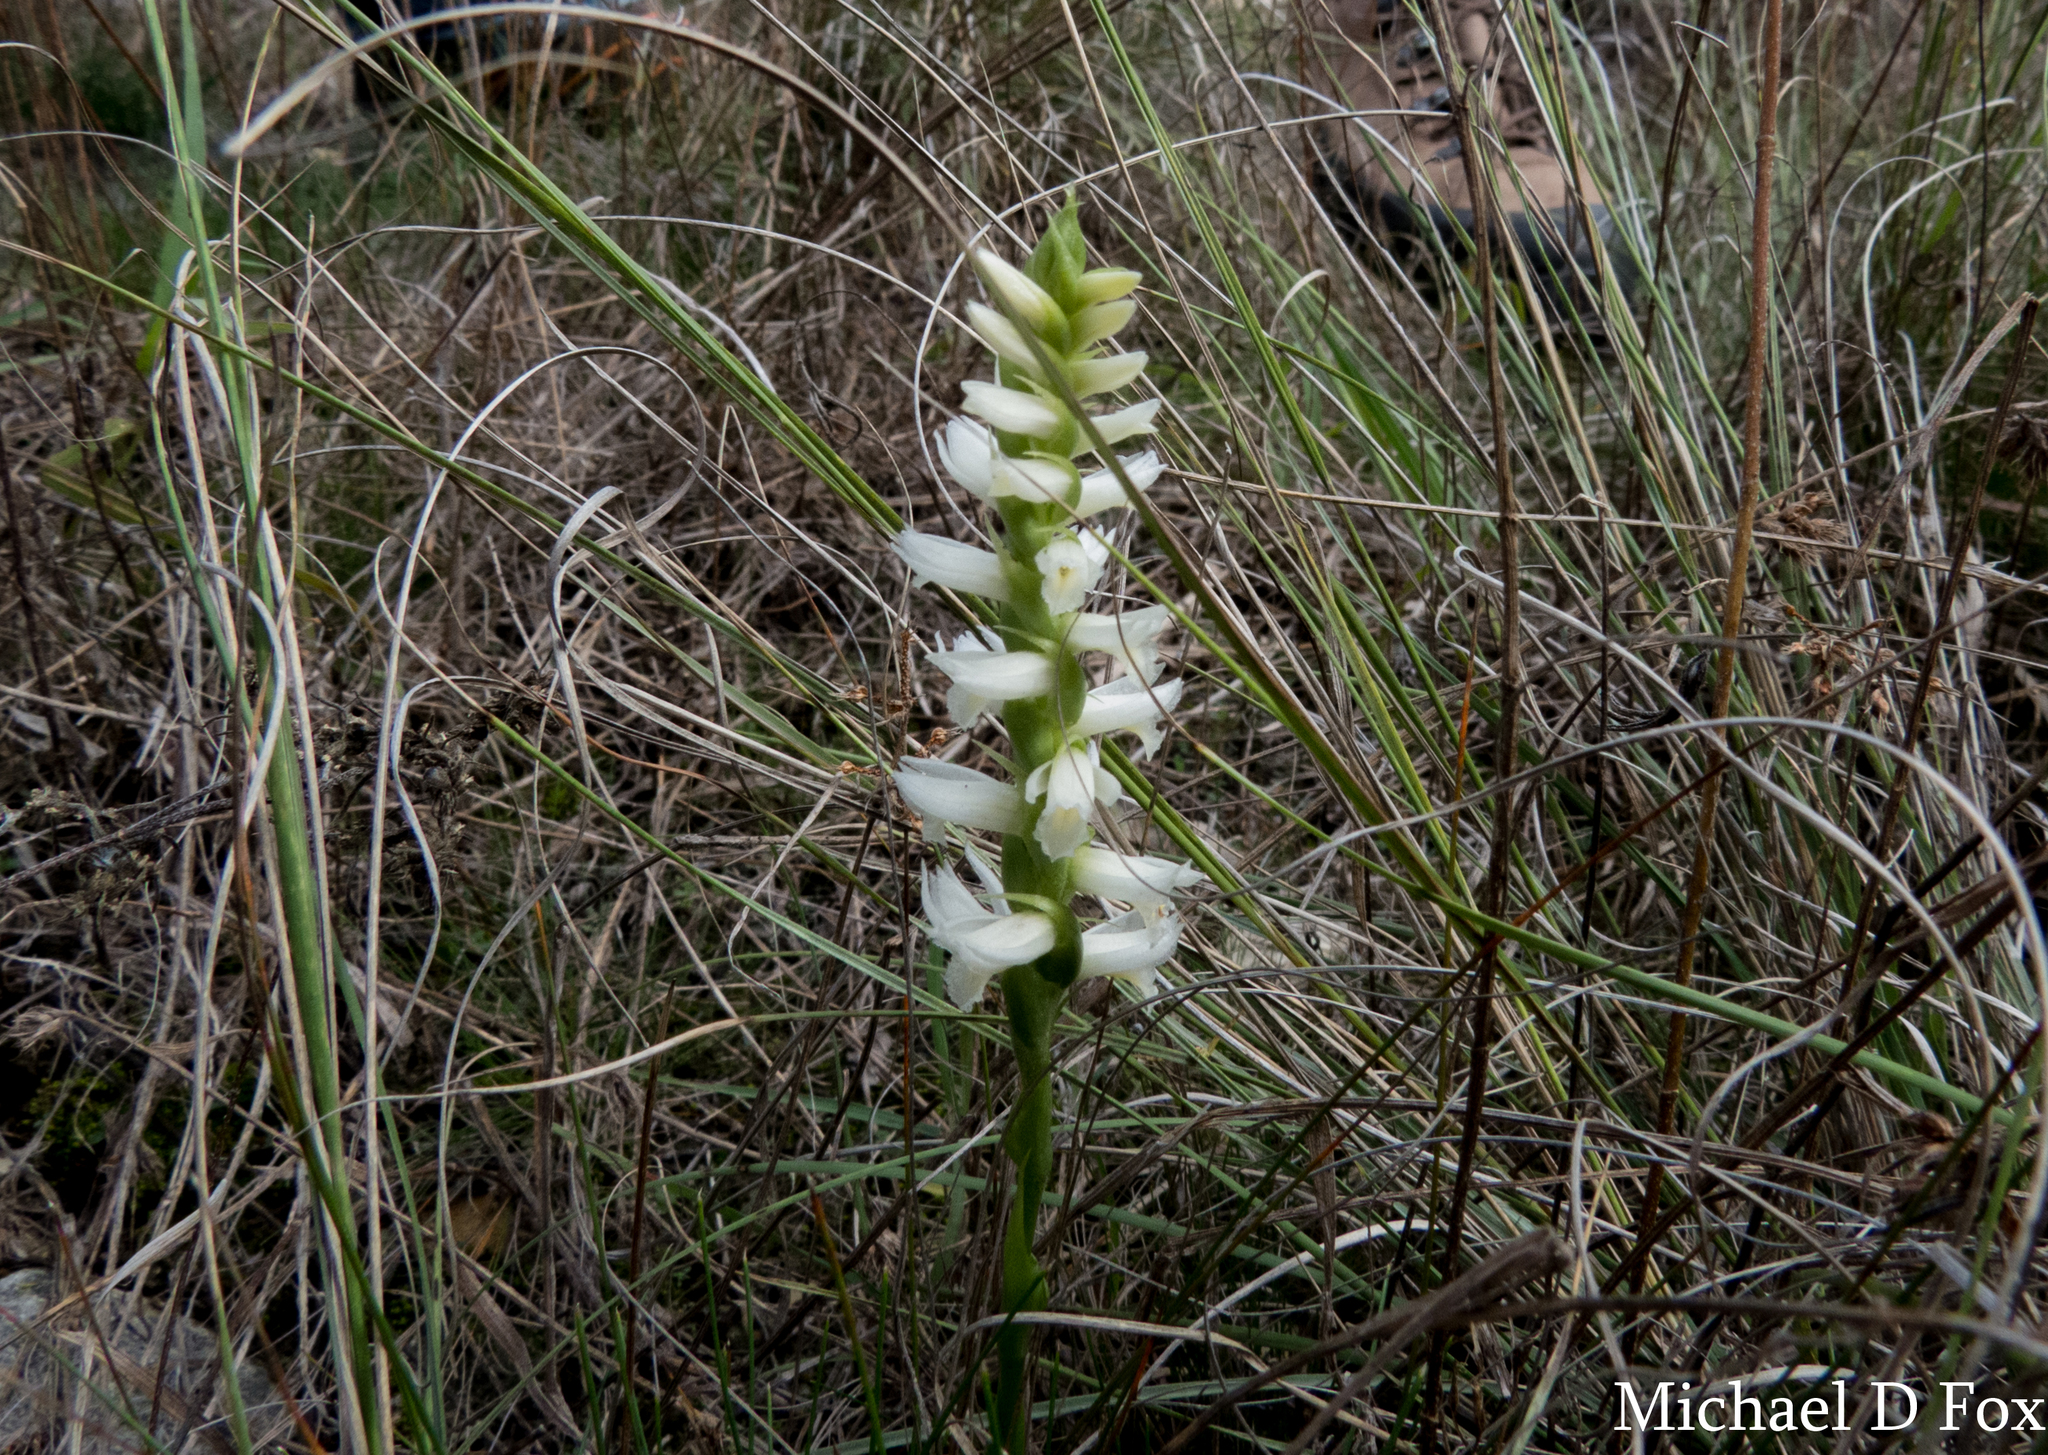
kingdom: Plantae
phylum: Tracheophyta
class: Liliopsida
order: Asparagales
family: Orchidaceae
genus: Spiranthes
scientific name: Spiranthes magnicamporum
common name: Great plains ladies'-tresses
